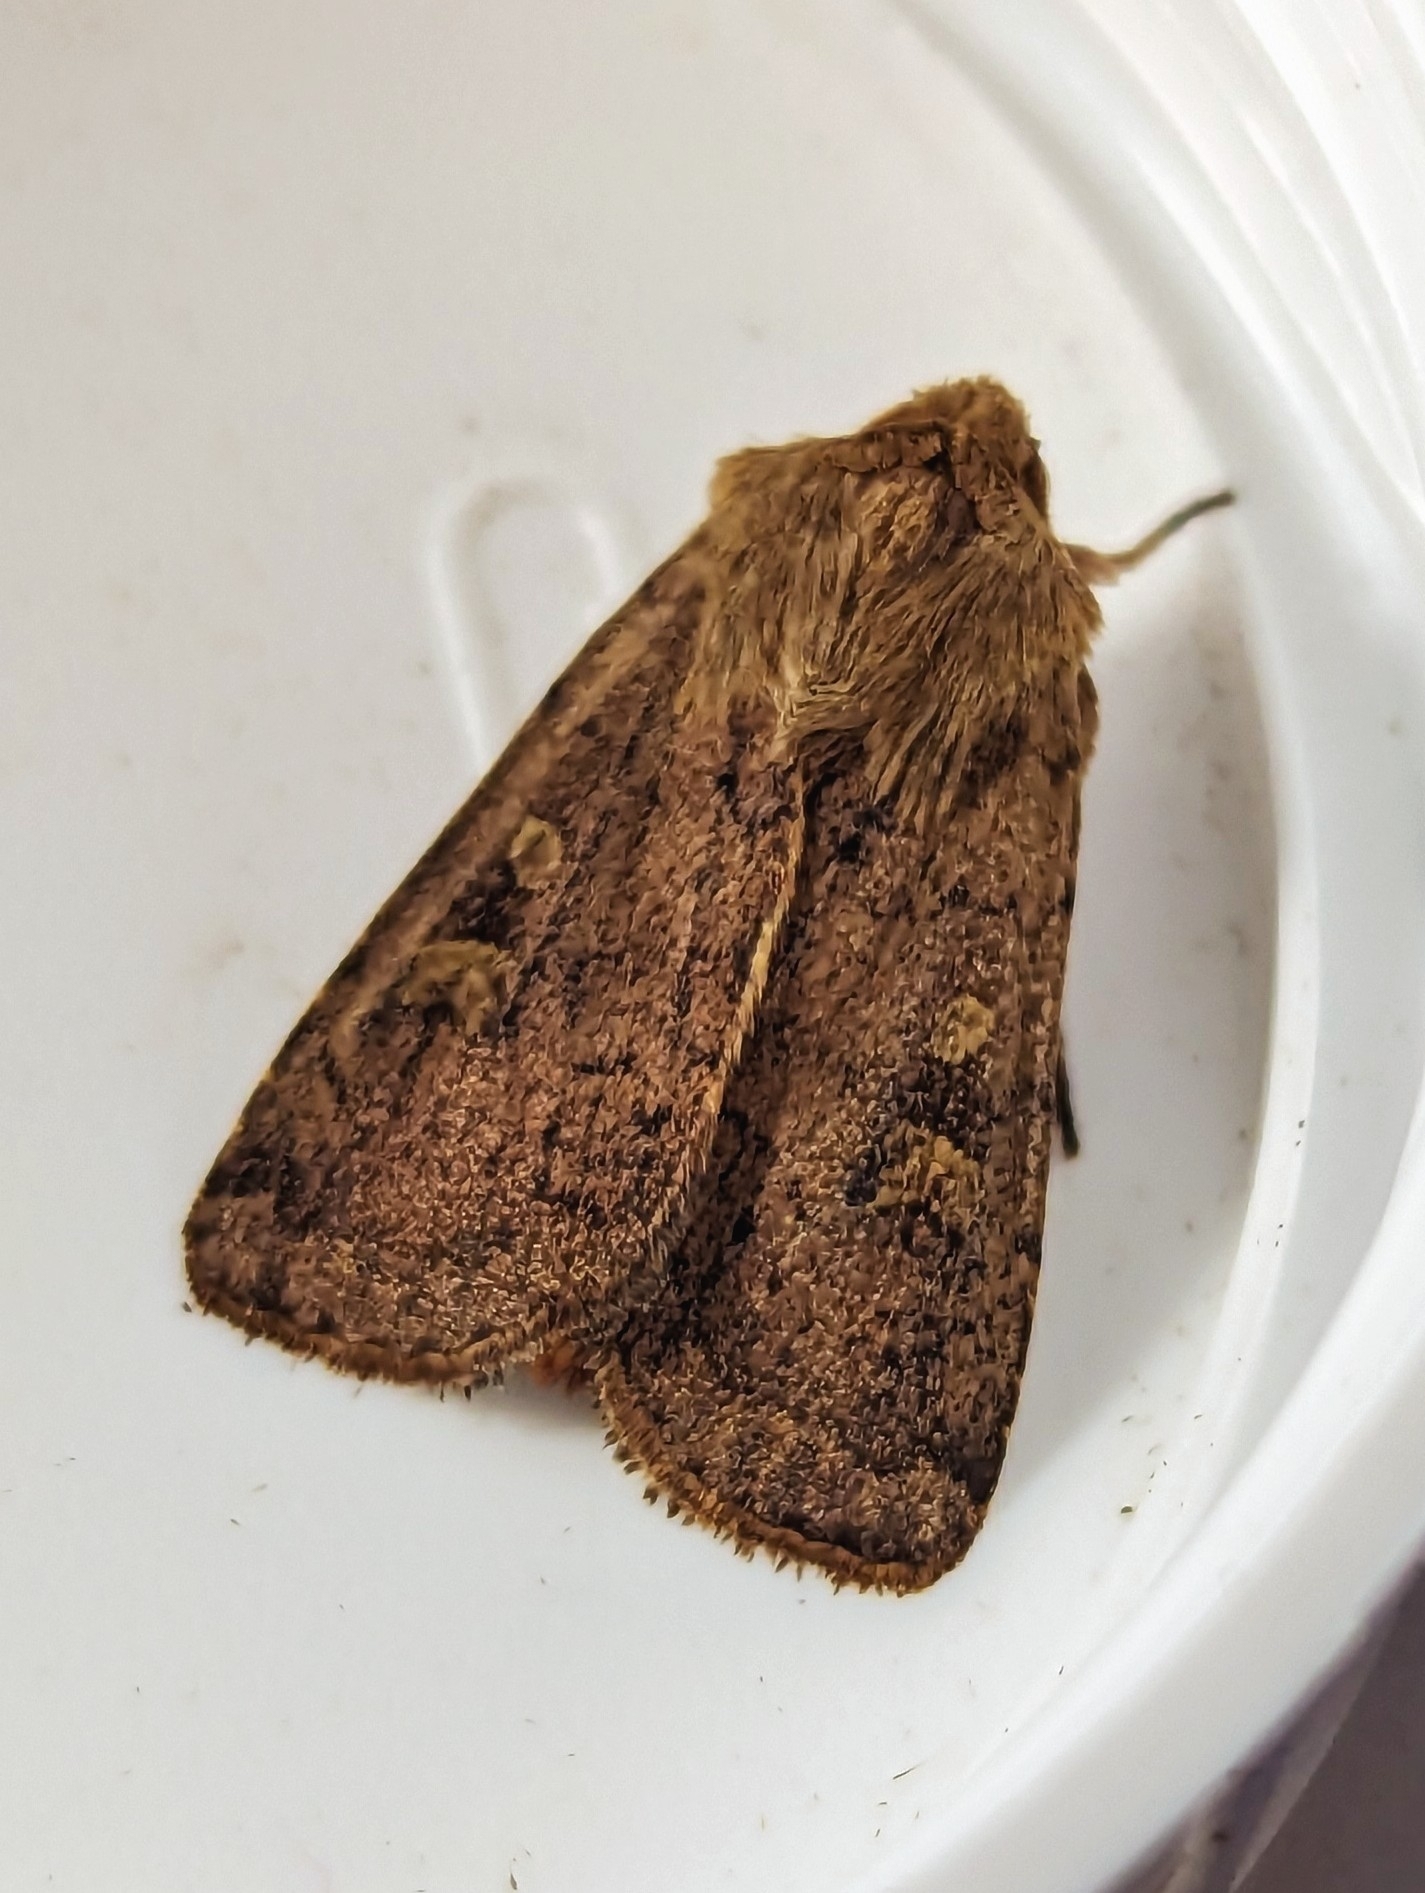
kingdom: Animalia
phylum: Arthropoda
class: Insecta
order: Lepidoptera
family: Noctuidae
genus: Xestia
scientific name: Xestia xanthographa
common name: Square-spot rustic
